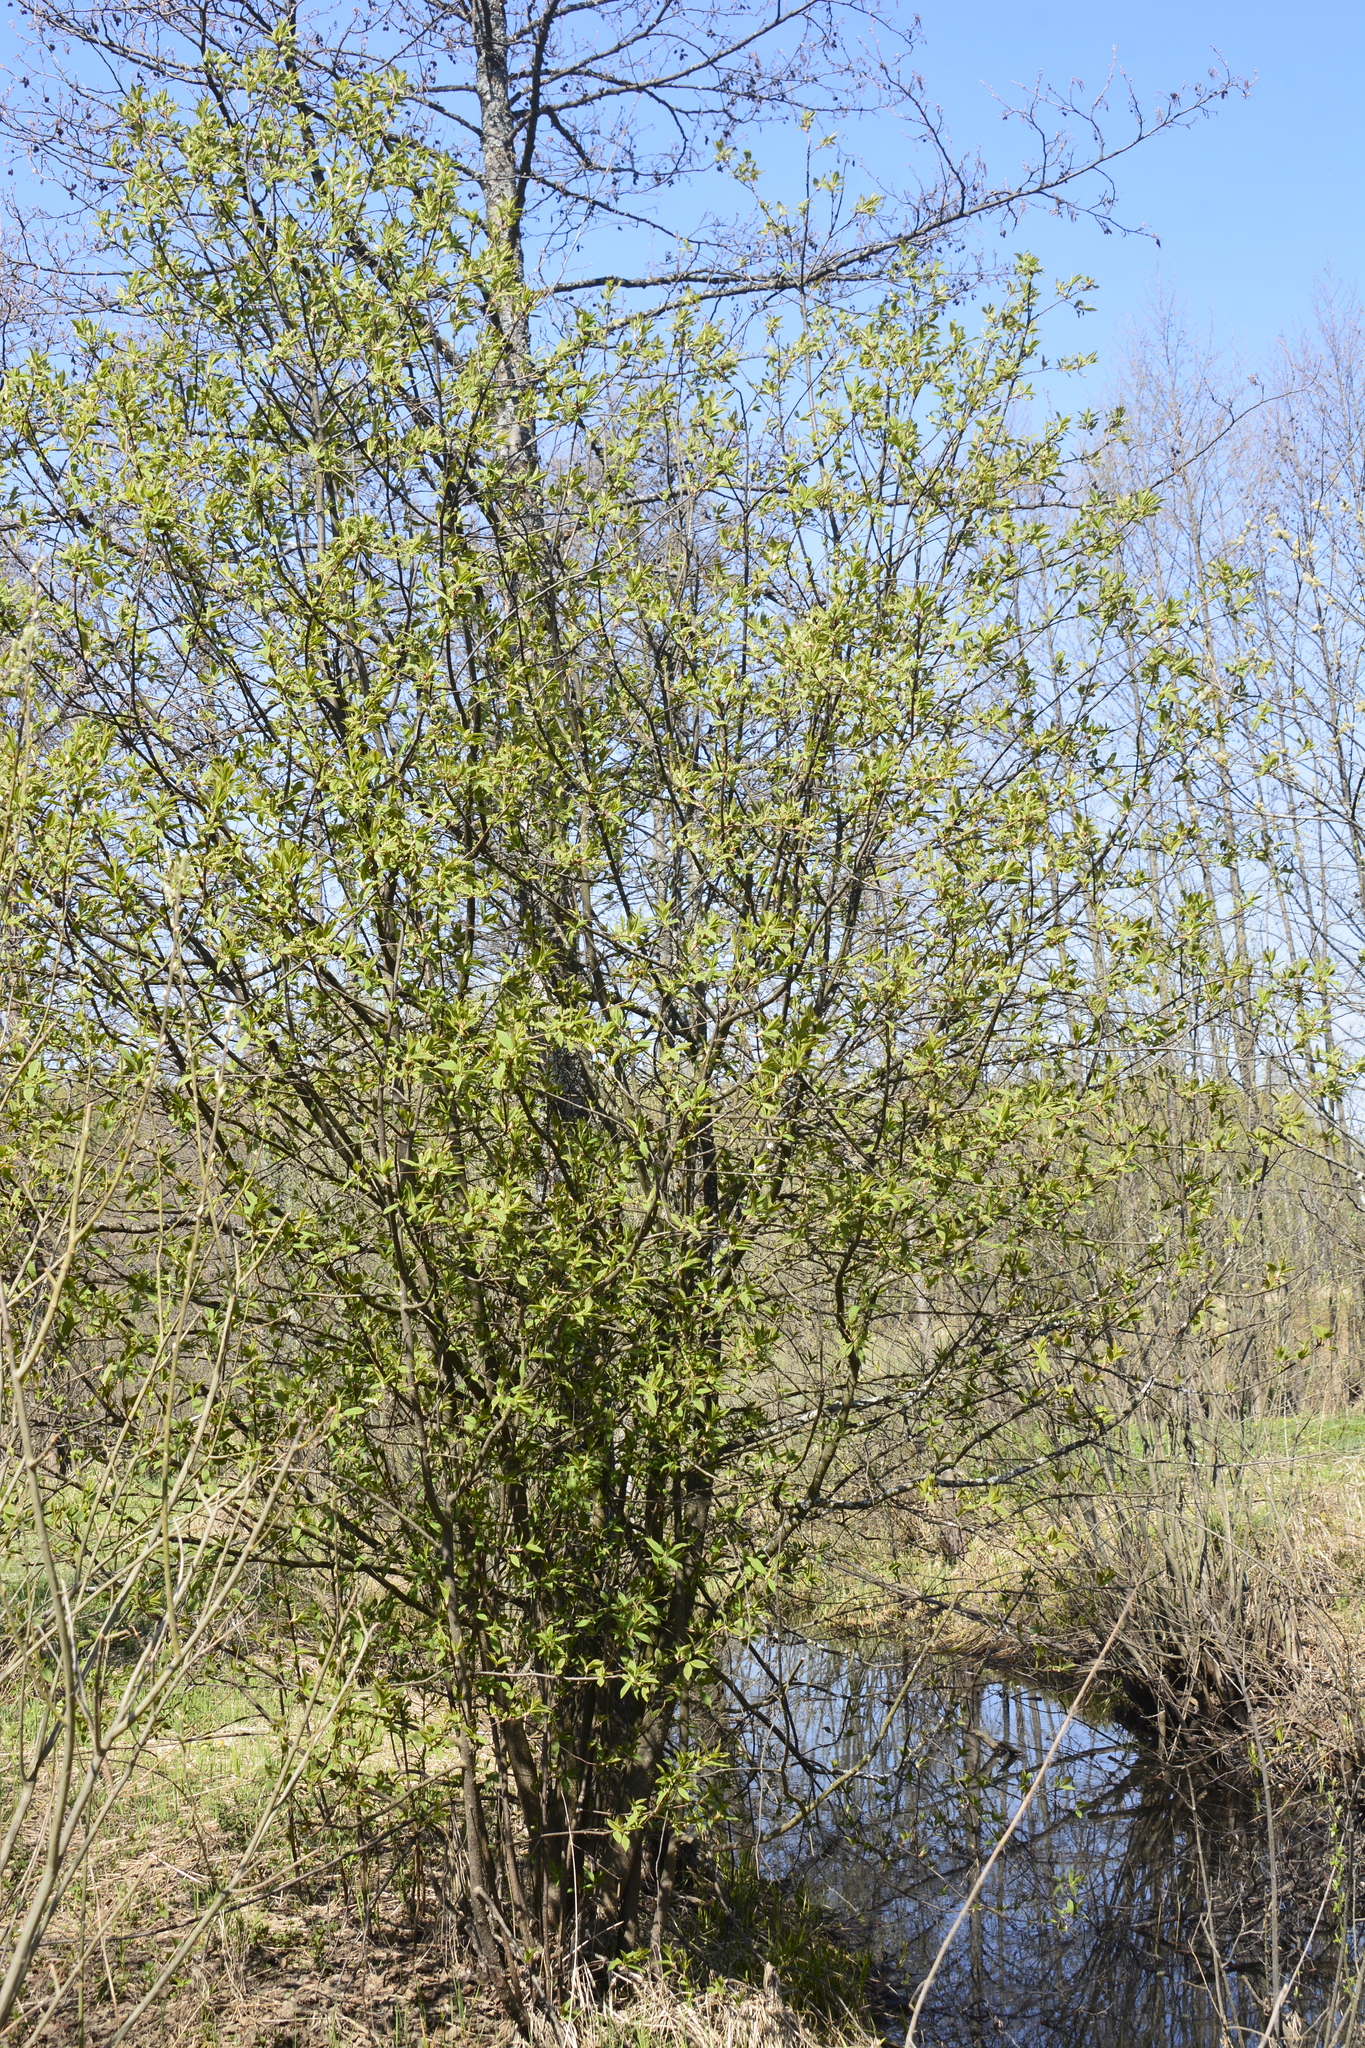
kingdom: Plantae
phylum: Tracheophyta
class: Magnoliopsida
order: Rosales
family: Rosaceae
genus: Prunus
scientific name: Prunus padus
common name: Bird cherry
